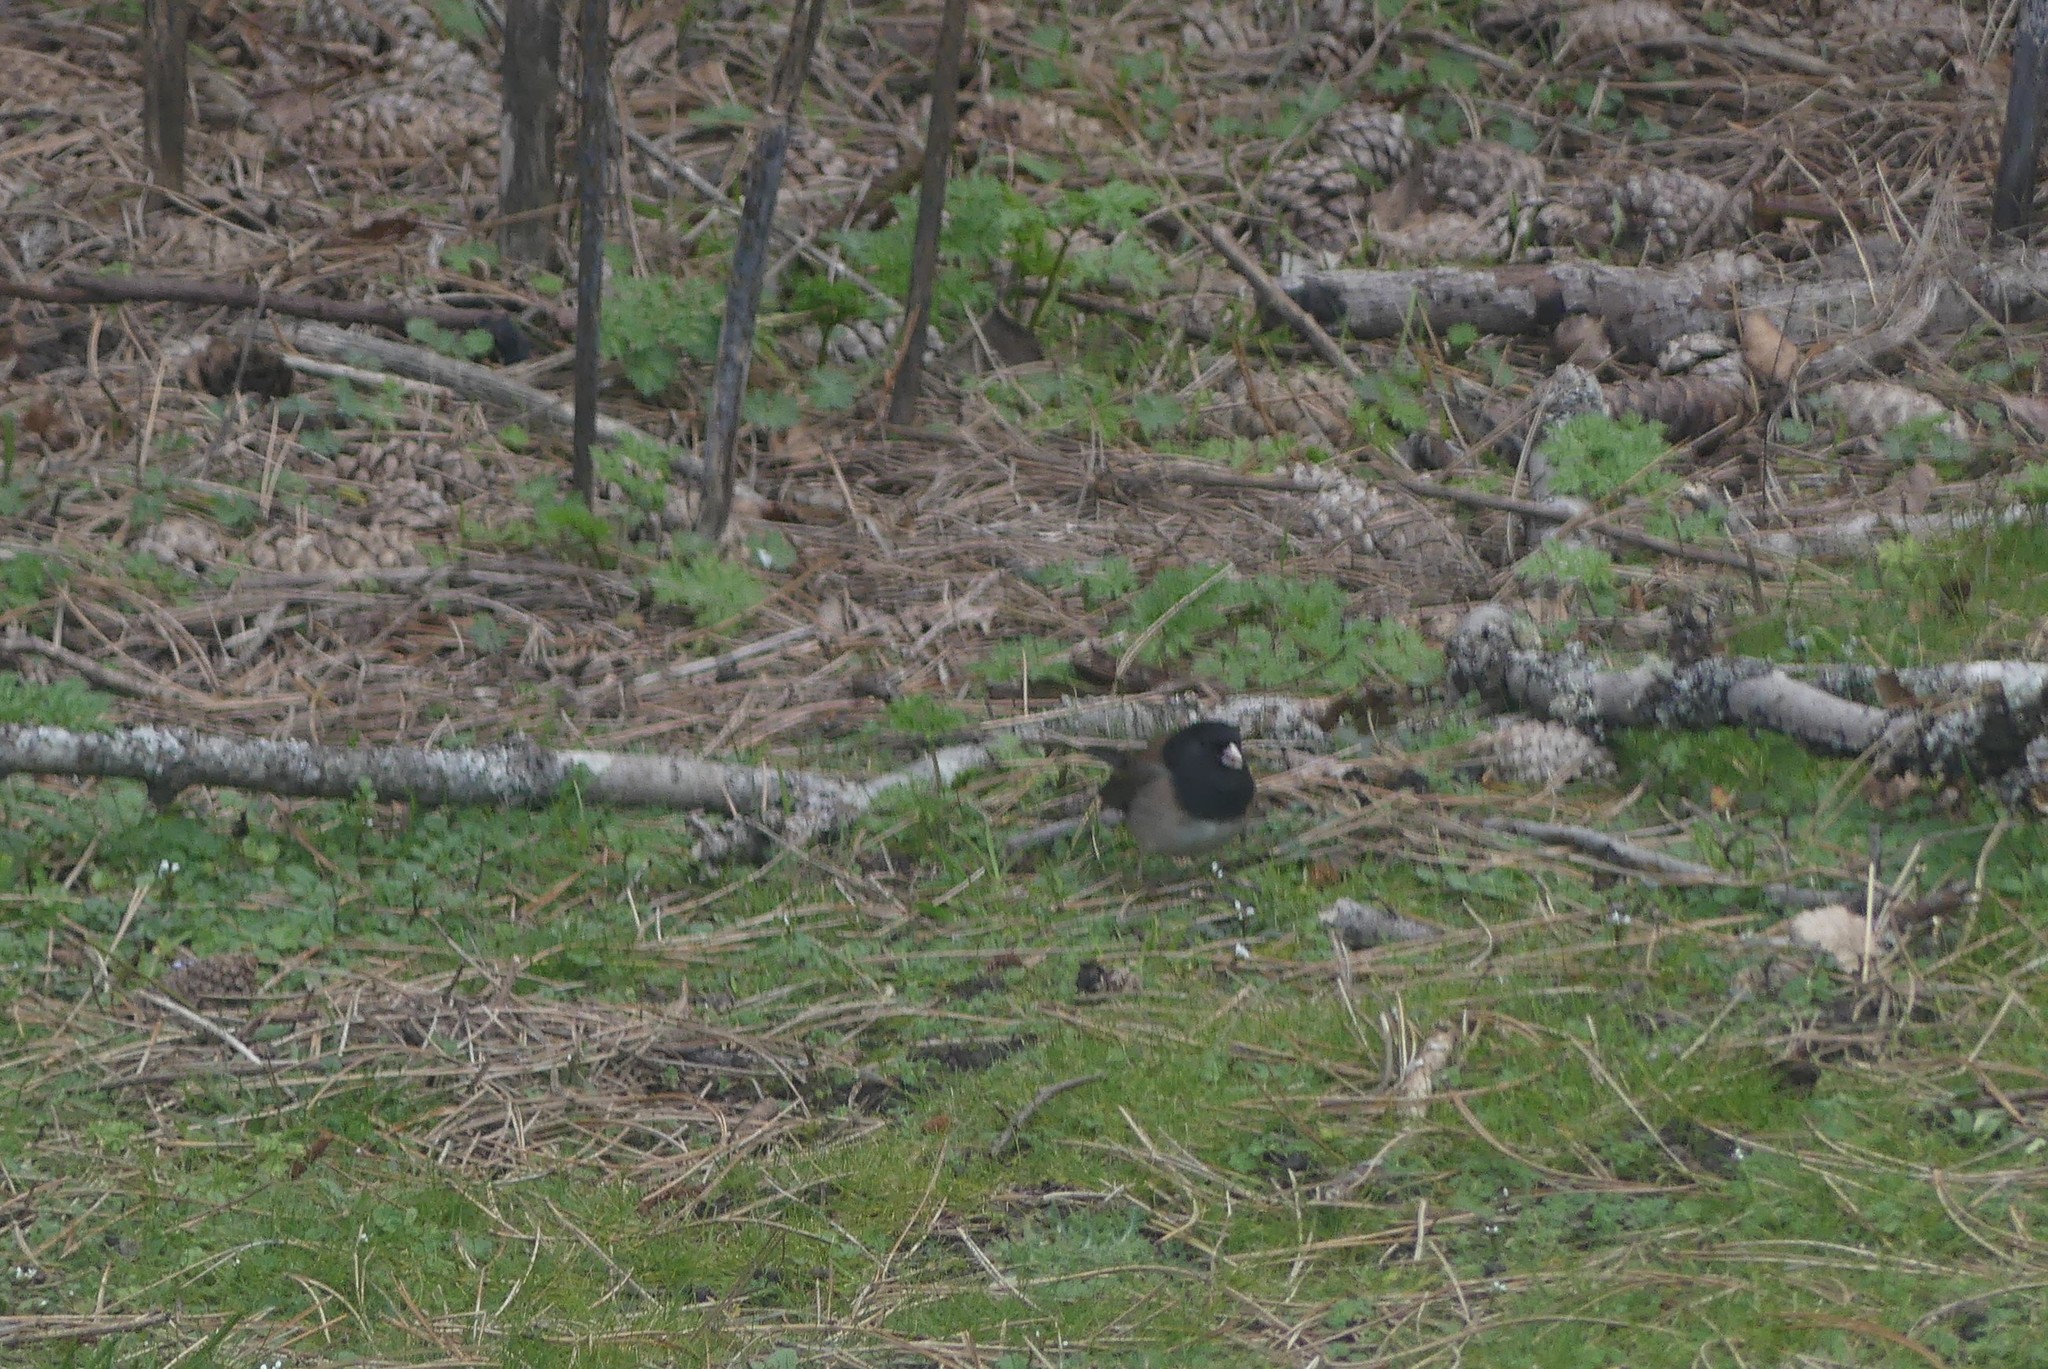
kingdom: Animalia
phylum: Chordata
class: Aves
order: Passeriformes
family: Passerellidae
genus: Junco
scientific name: Junco hyemalis
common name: Dark-eyed junco
